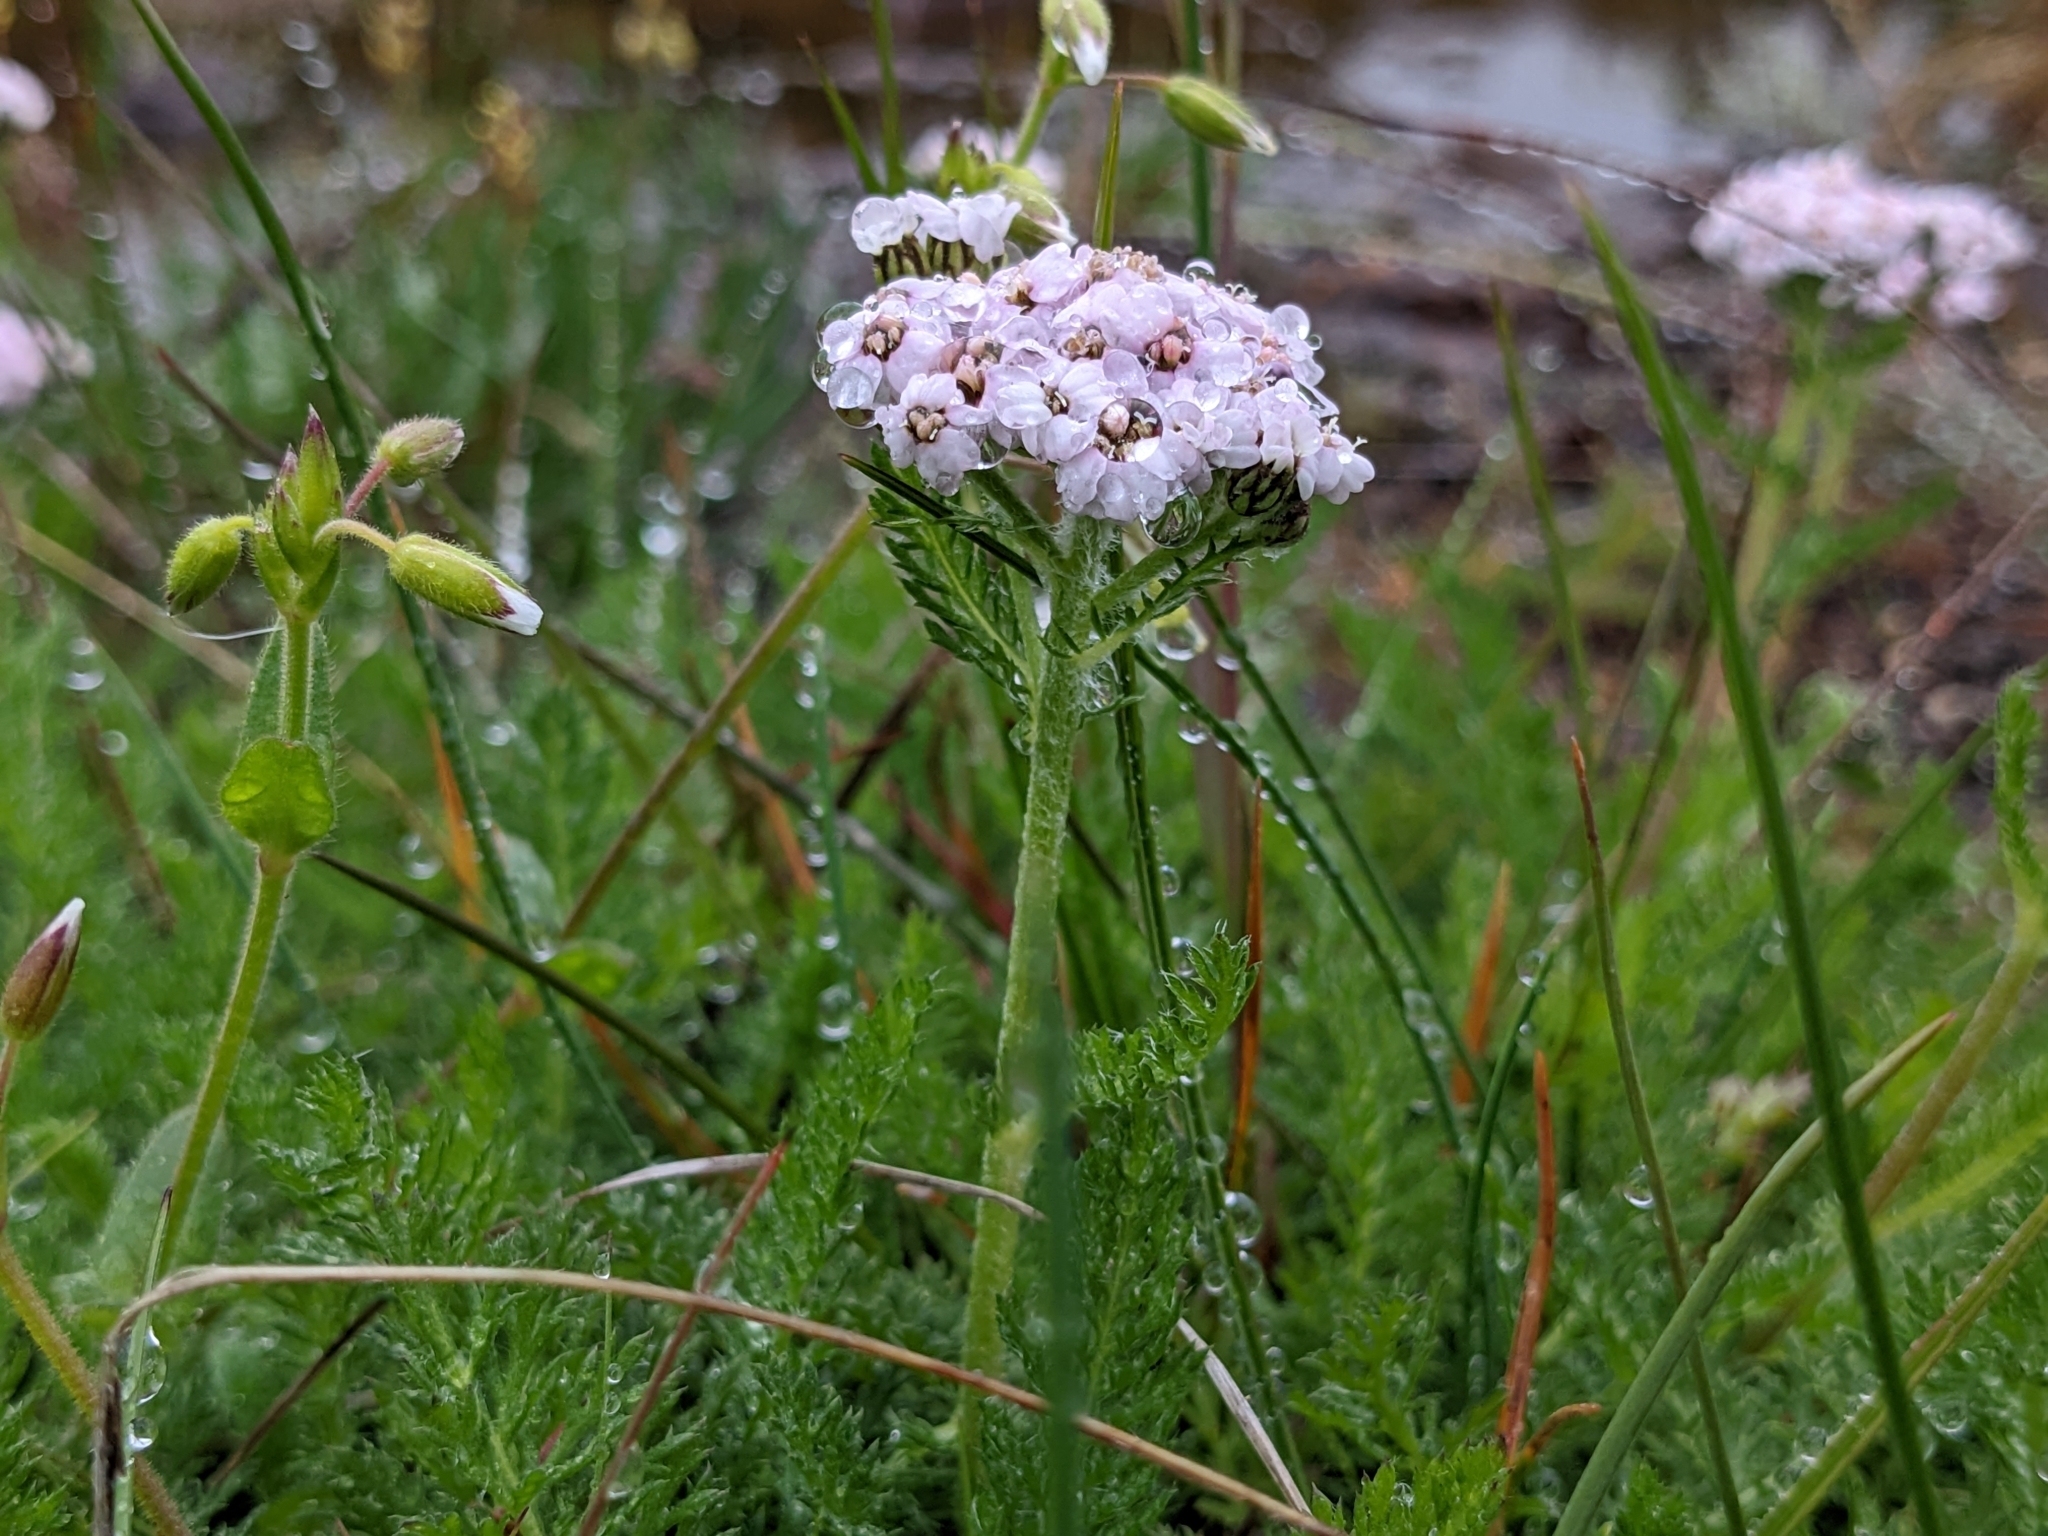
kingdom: Plantae
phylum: Tracheophyta
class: Magnoliopsida
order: Asterales
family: Asteraceae
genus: Achillea
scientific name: Achillea millefolium
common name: Yarrow
